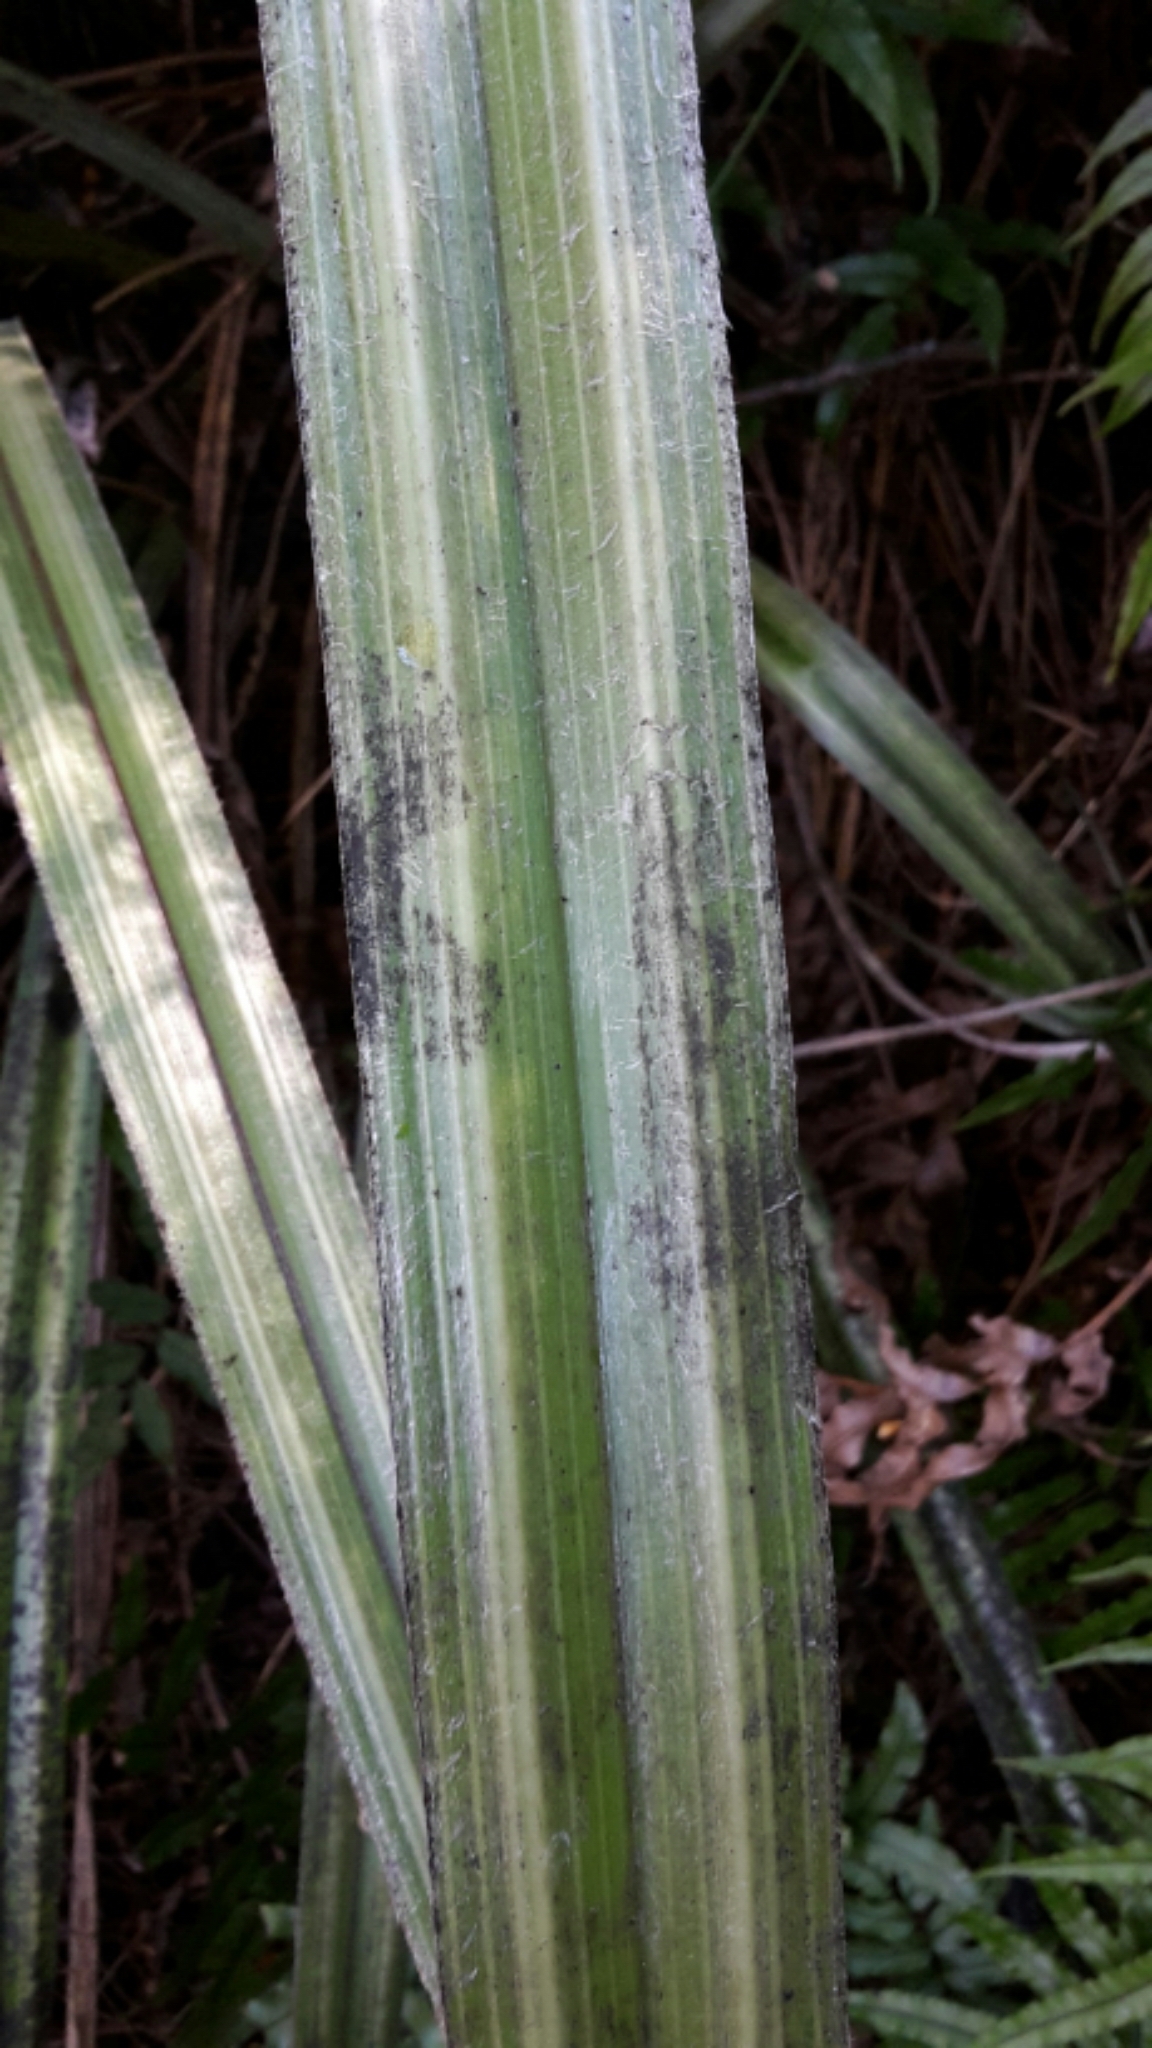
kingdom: Plantae
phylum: Tracheophyta
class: Liliopsida
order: Asparagales
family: Asteliaceae
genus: Astelia
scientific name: Astelia nervosa
